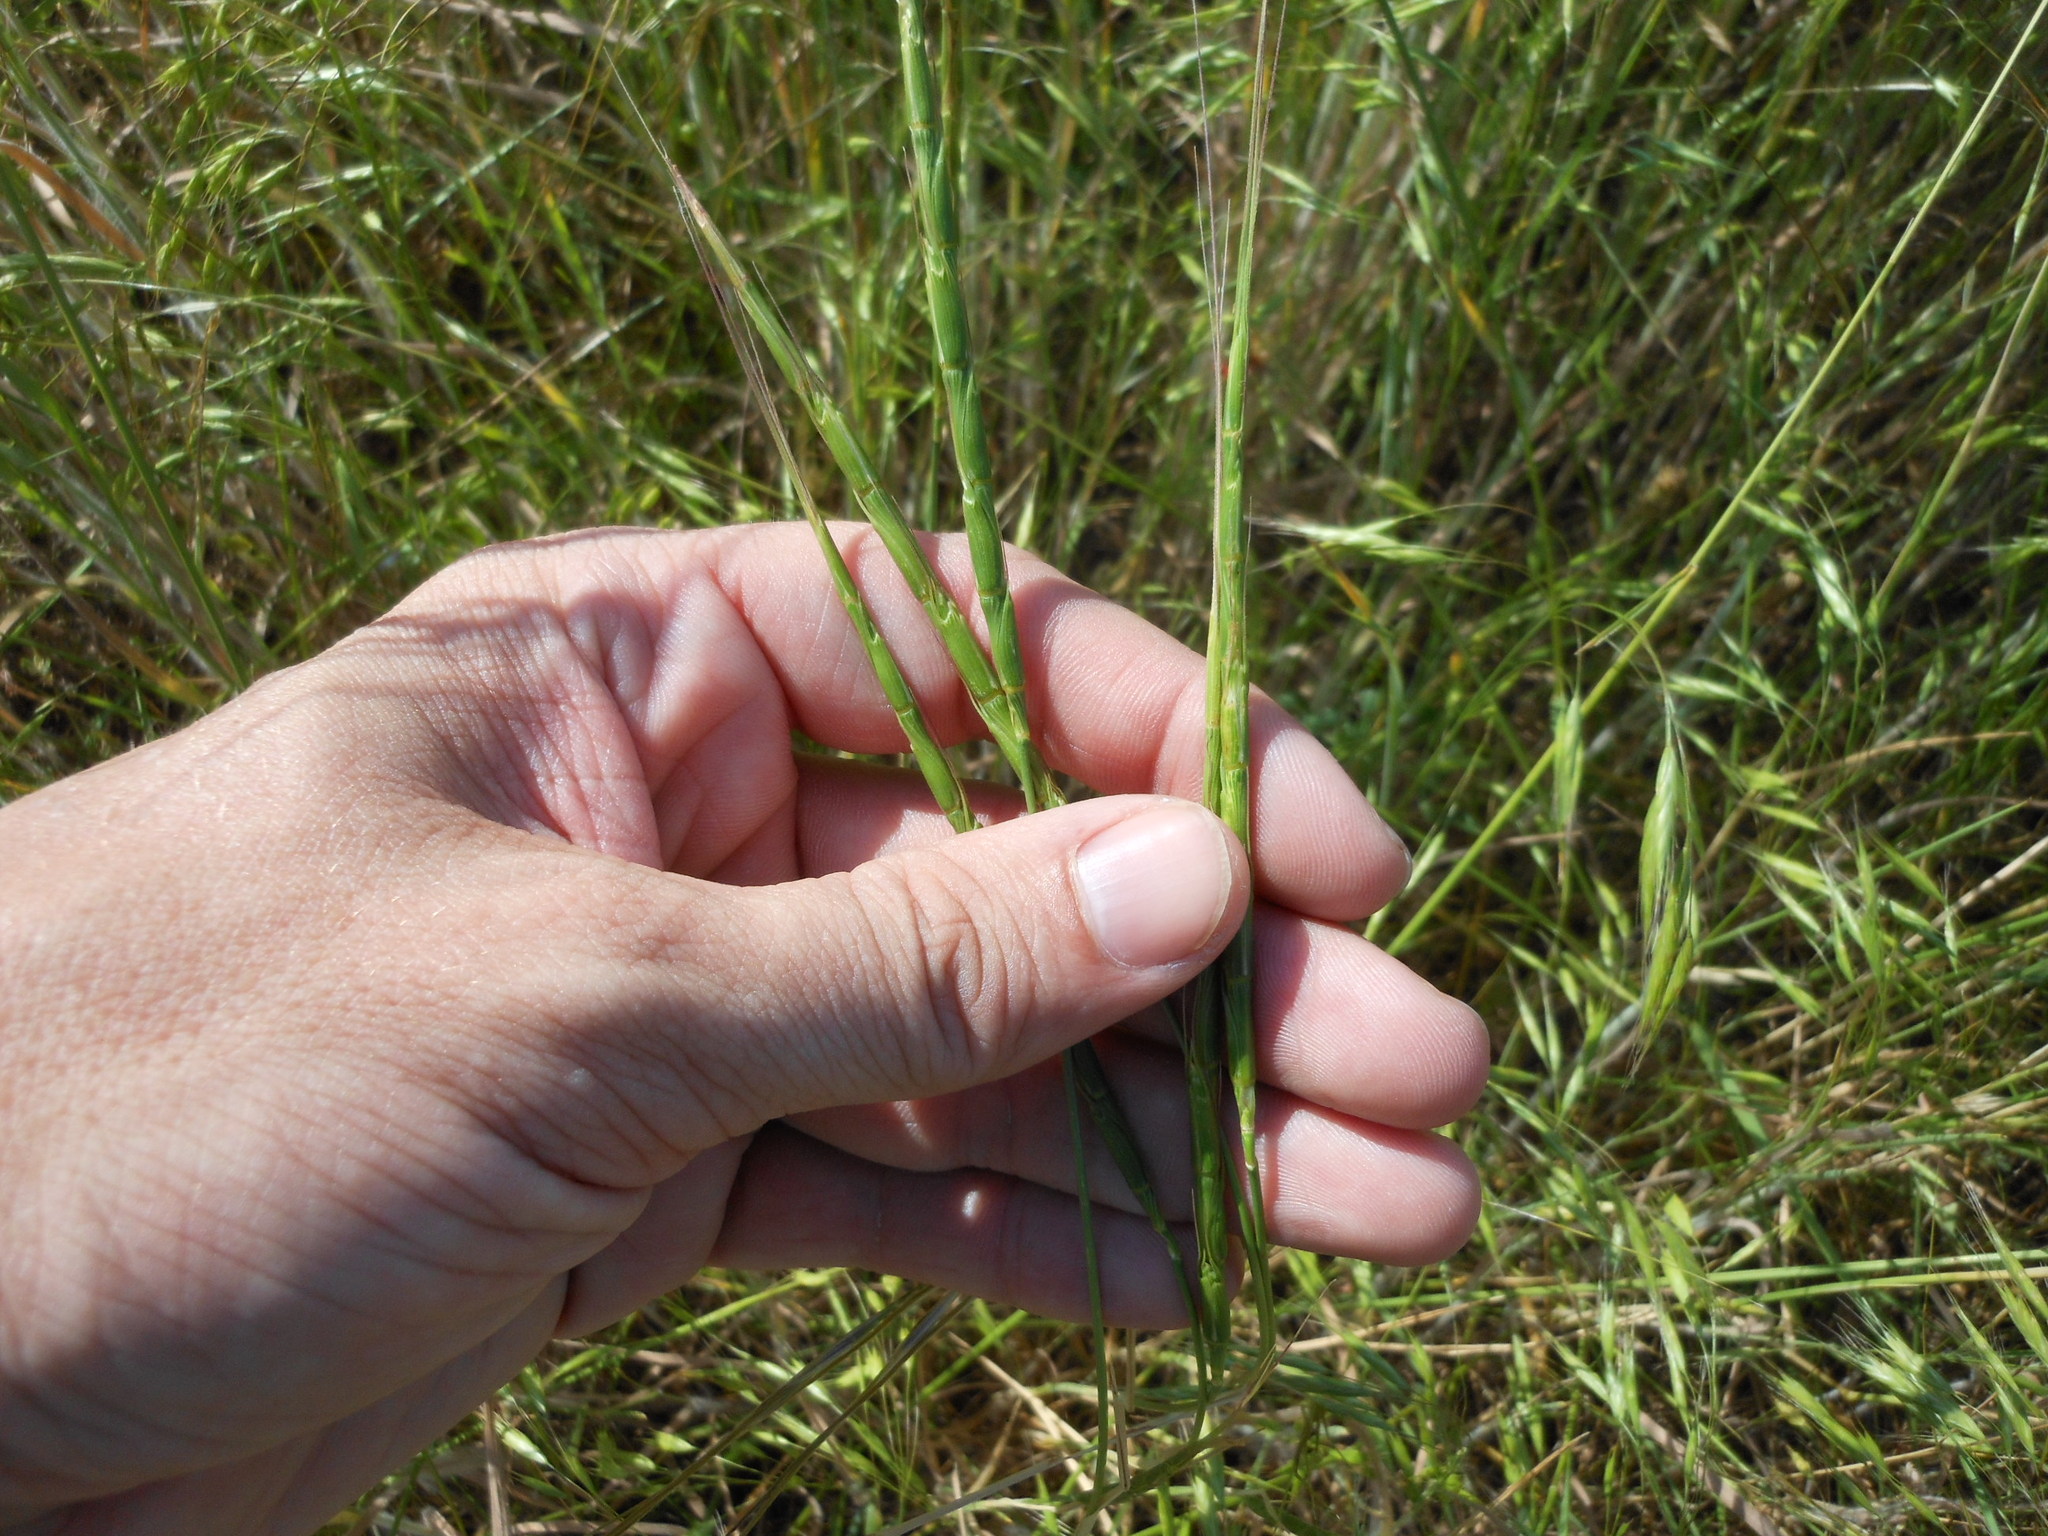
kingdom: Plantae
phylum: Tracheophyta
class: Liliopsida
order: Poales
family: Poaceae
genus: Aegilops
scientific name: Aegilops cylindrica
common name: Jointed goatgrass
